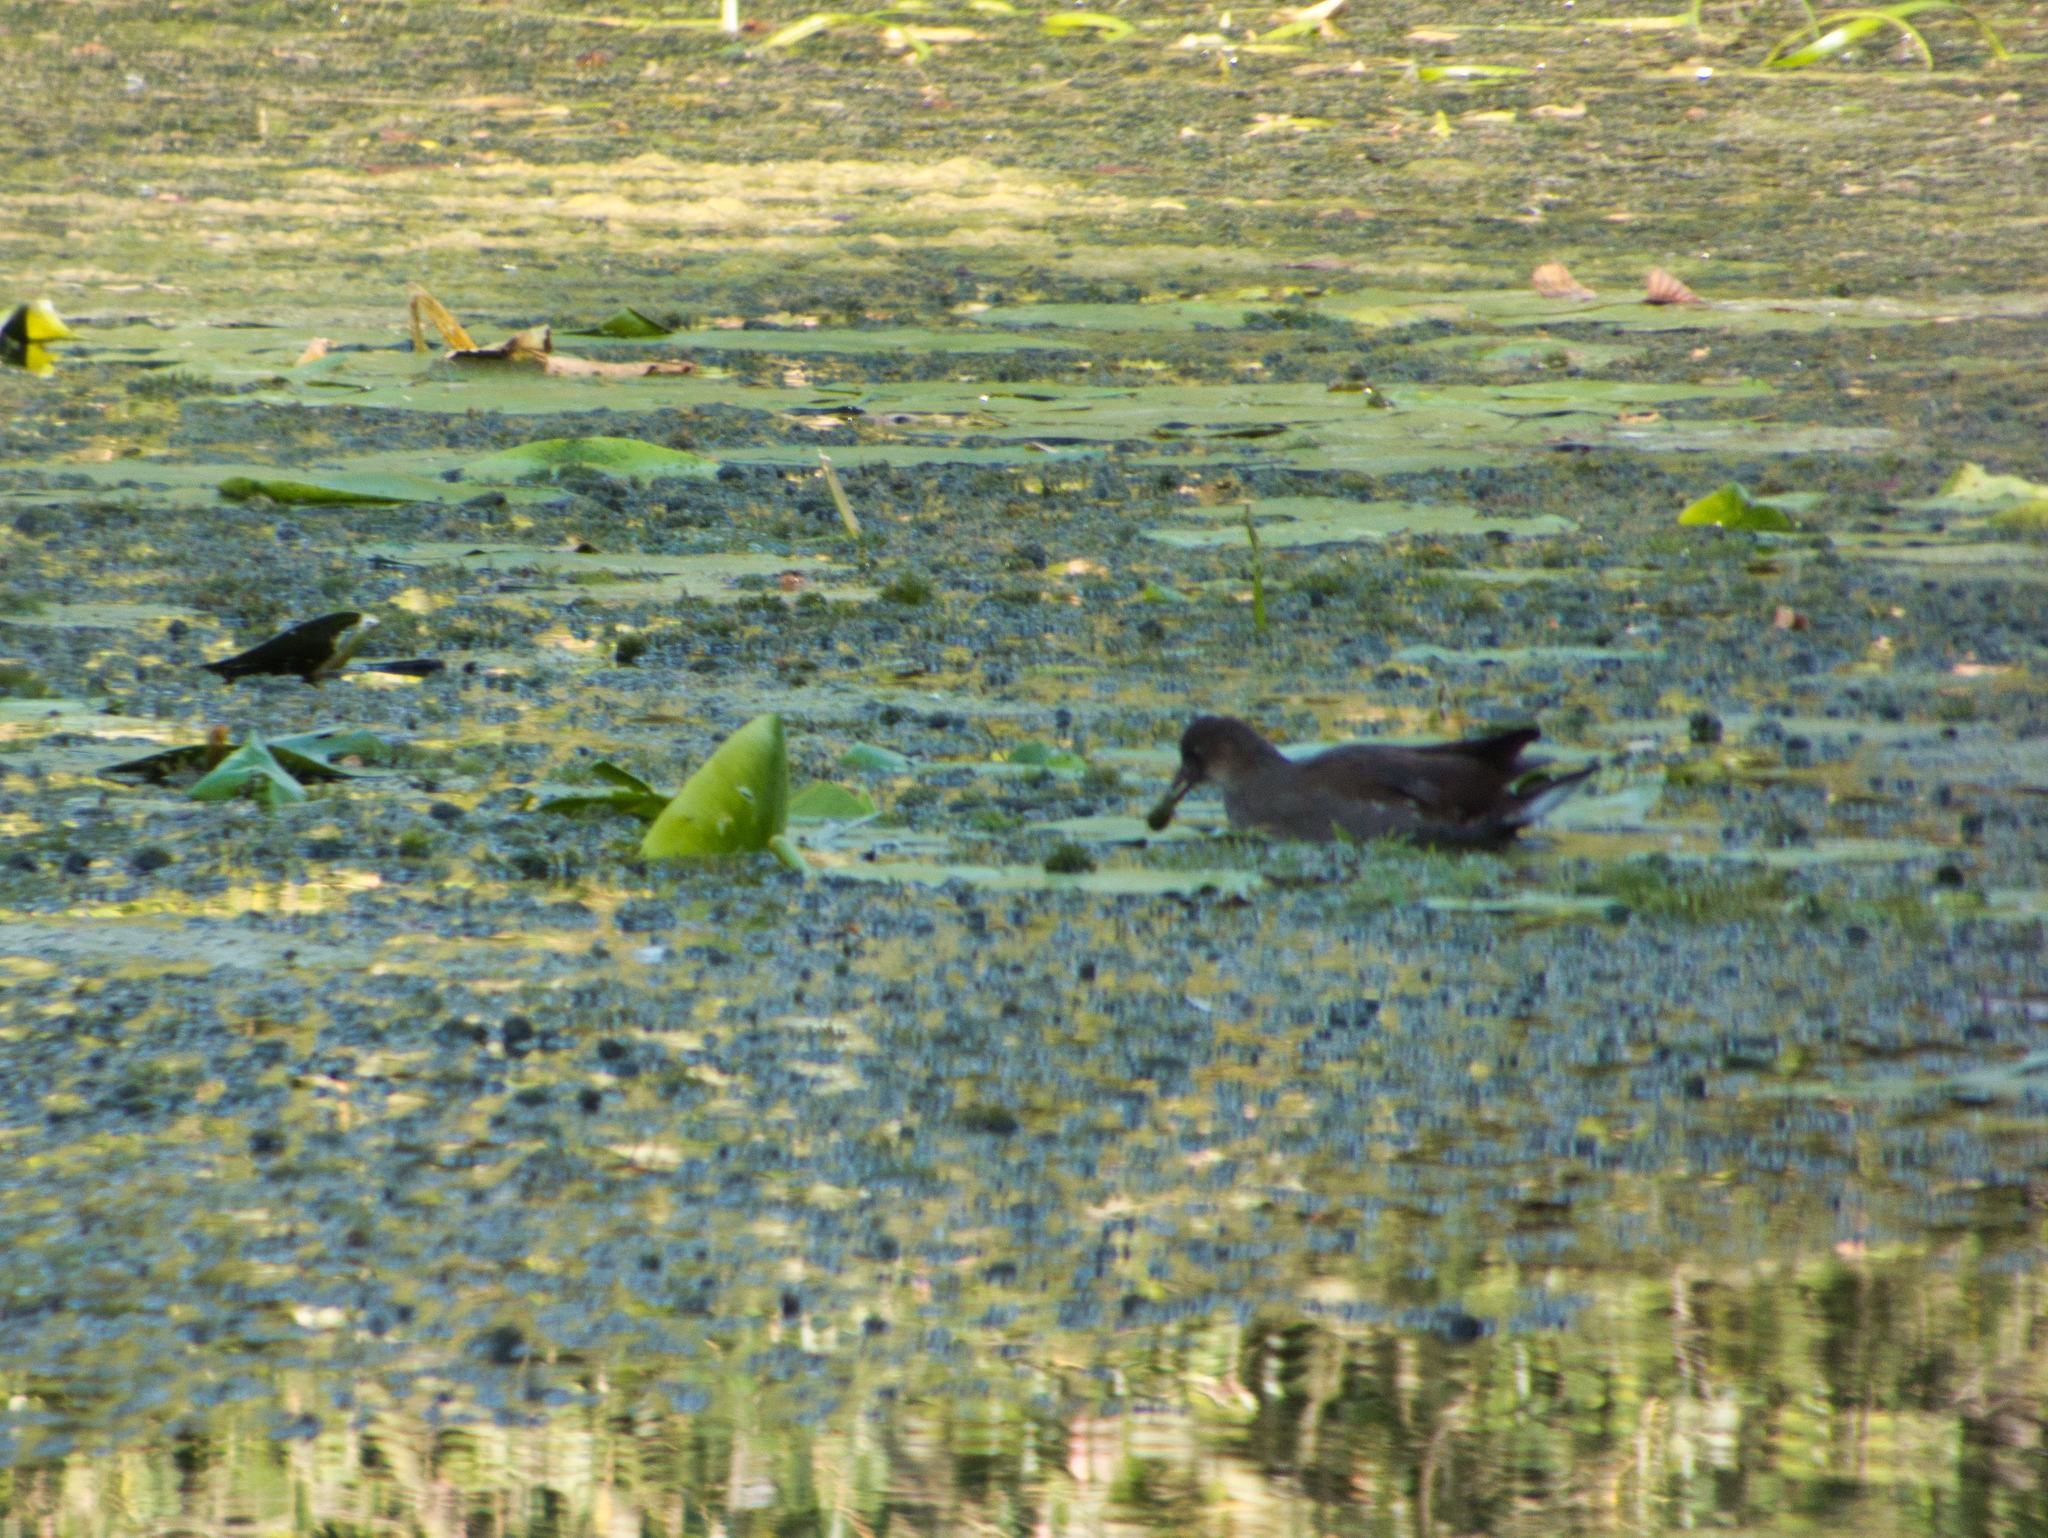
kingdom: Animalia
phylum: Chordata
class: Aves
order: Gruiformes
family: Rallidae
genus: Gallinula
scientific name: Gallinula chloropus
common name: Common moorhen
